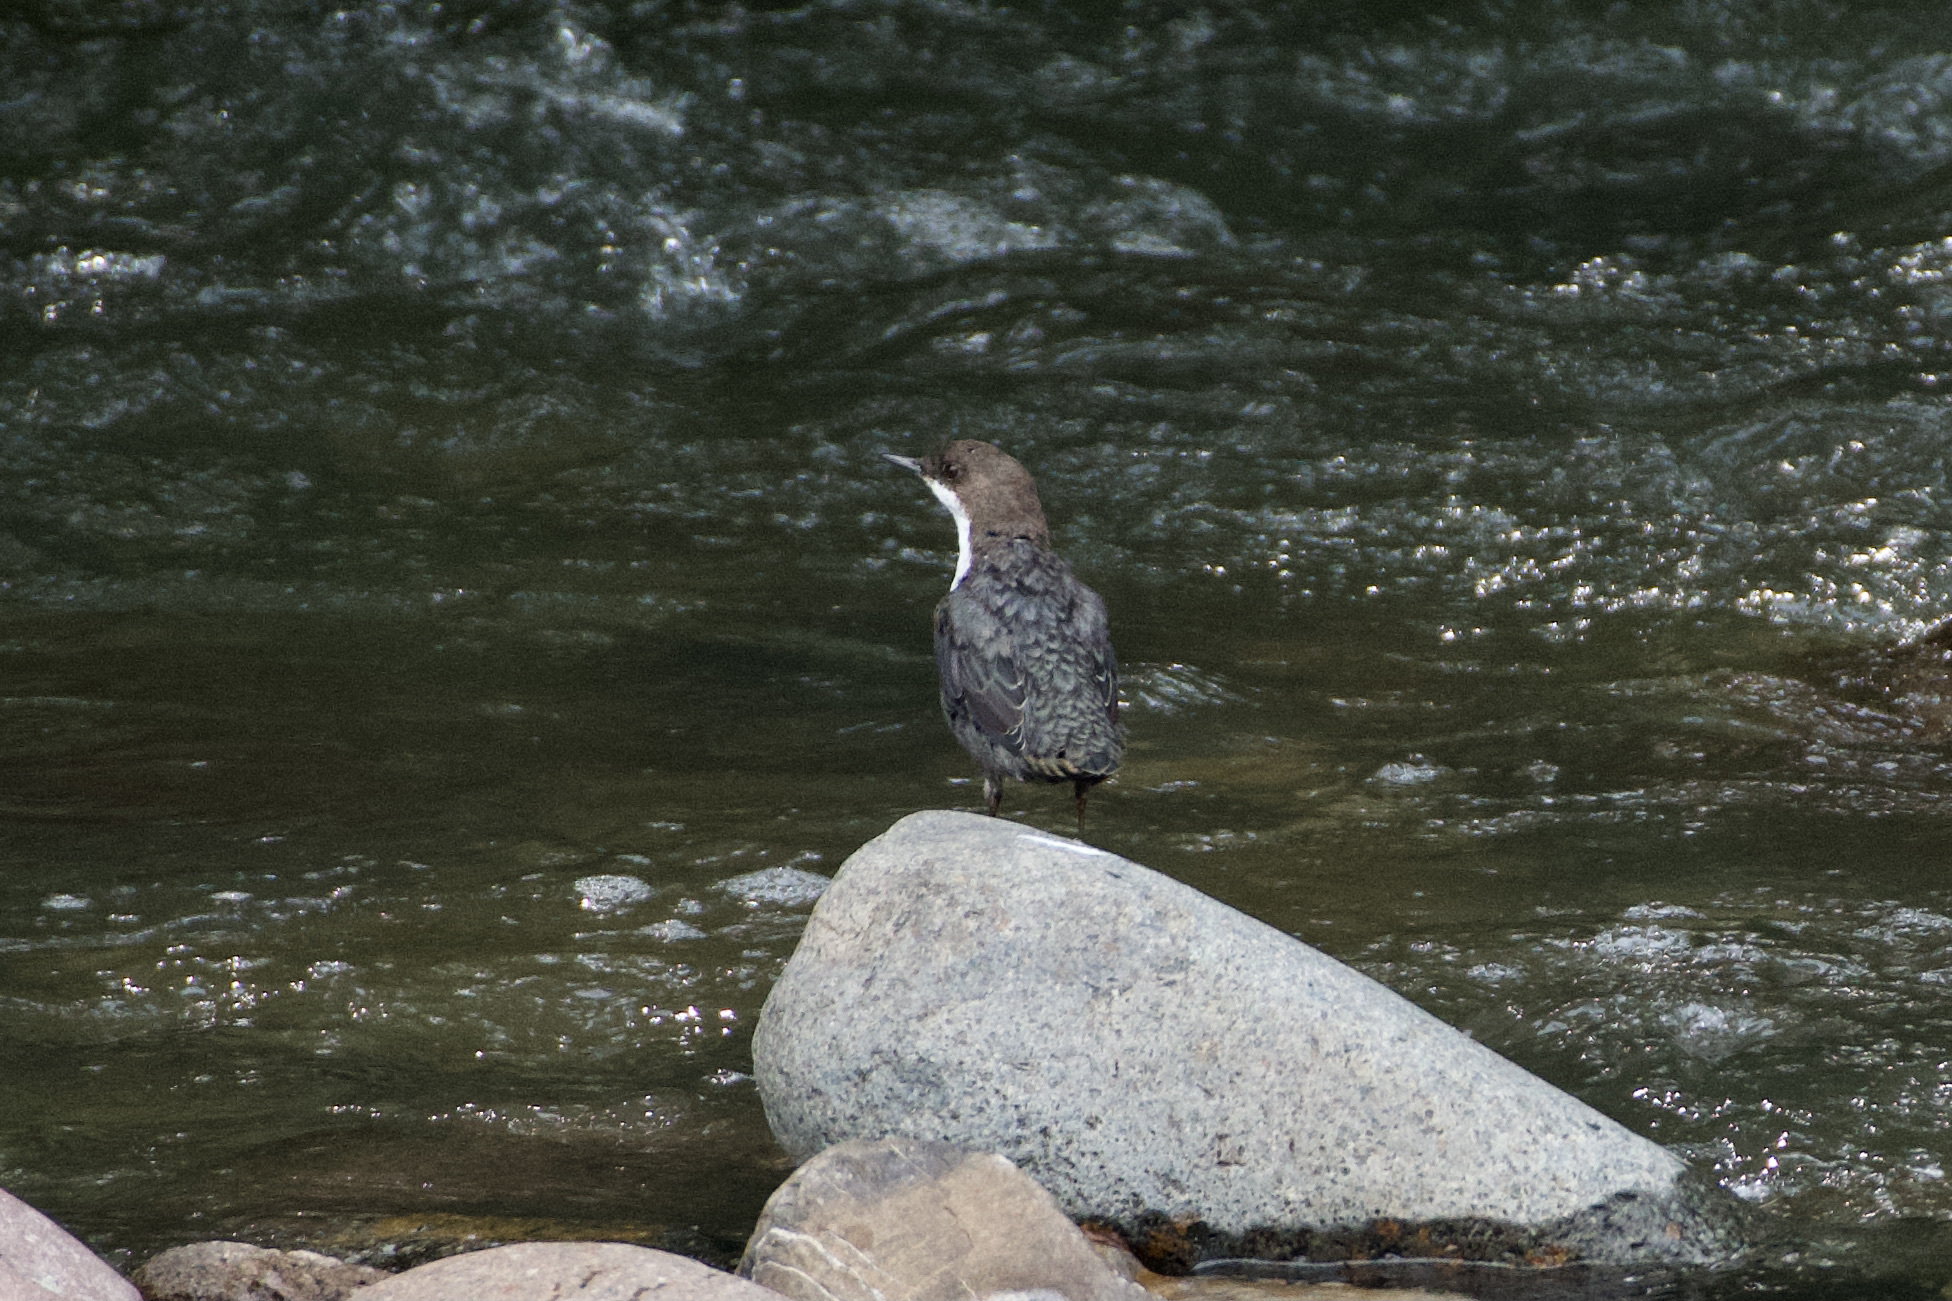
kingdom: Animalia
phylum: Chordata
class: Aves
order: Passeriformes
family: Cinclidae
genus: Cinclus
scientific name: Cinclus cinclus
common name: White-throated dipper
